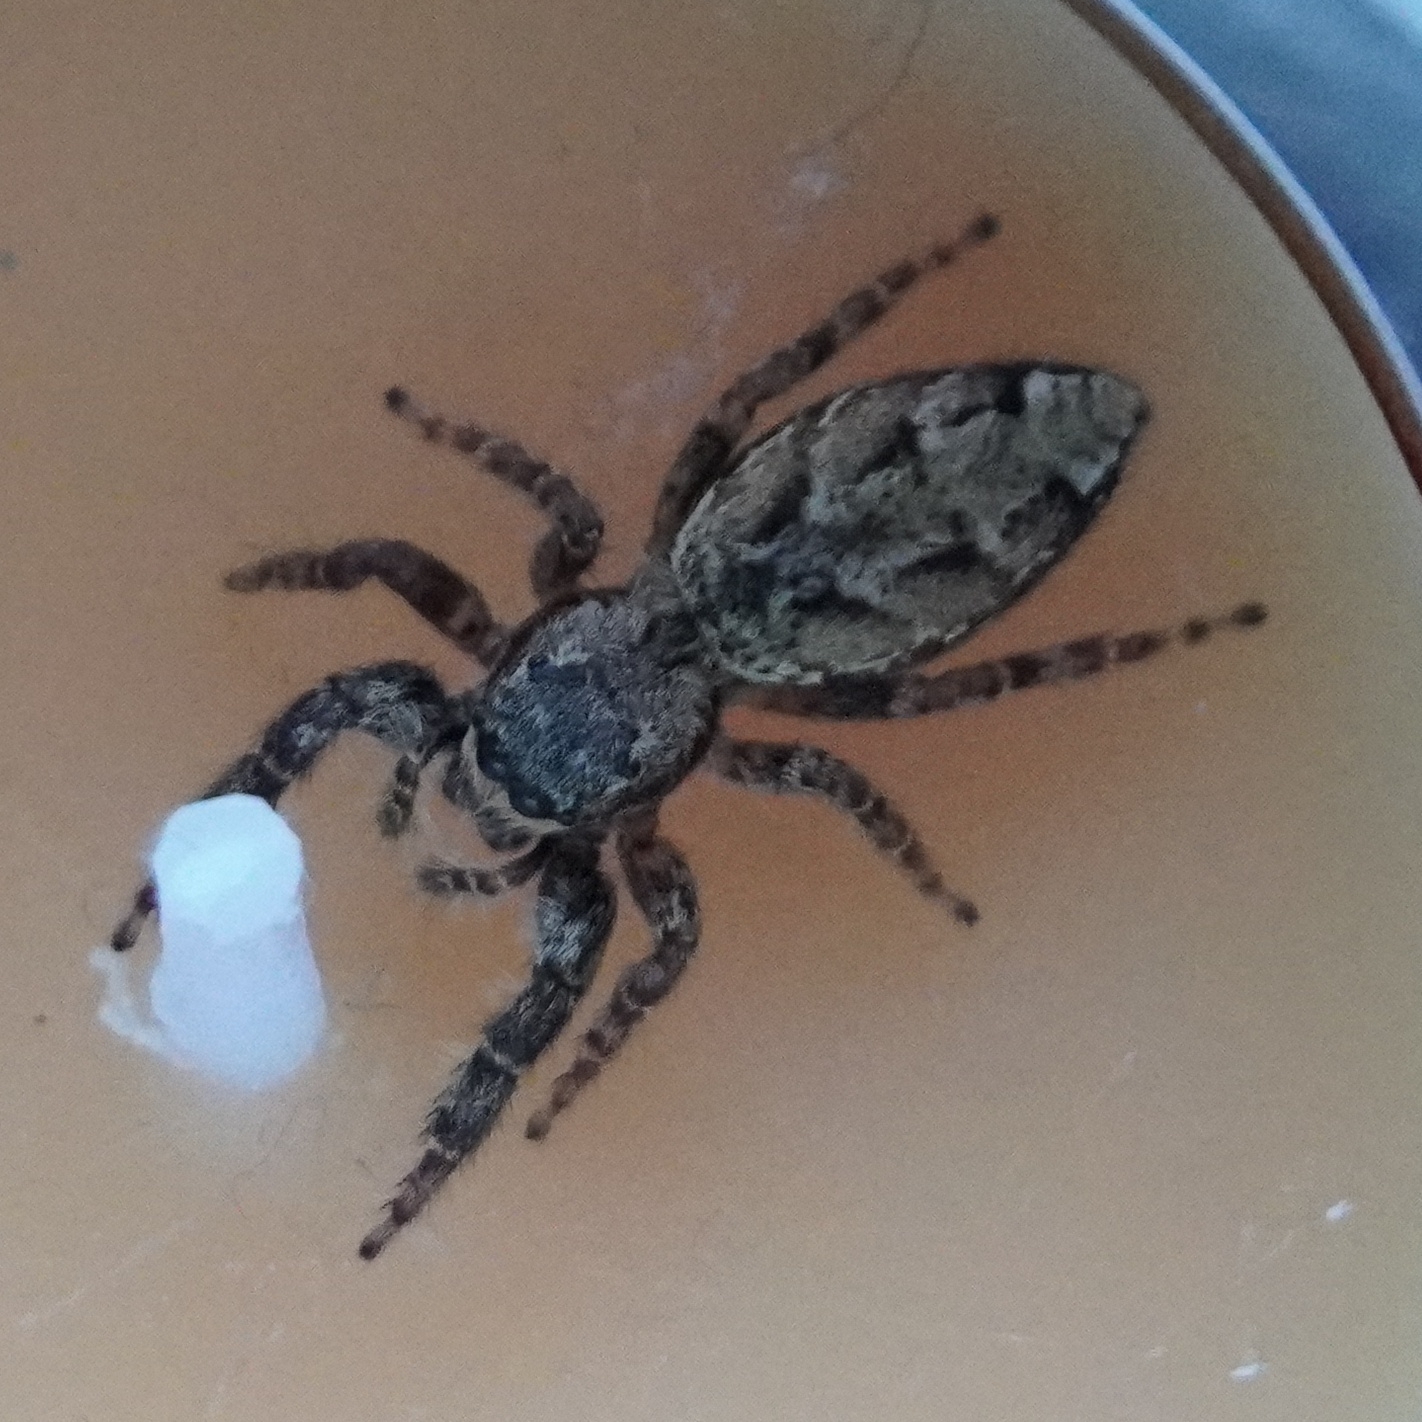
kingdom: Animalia
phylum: Arthropoda
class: Arachnida
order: Araneae
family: Salticidae
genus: Marpissa
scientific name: Marpissa muscosa
